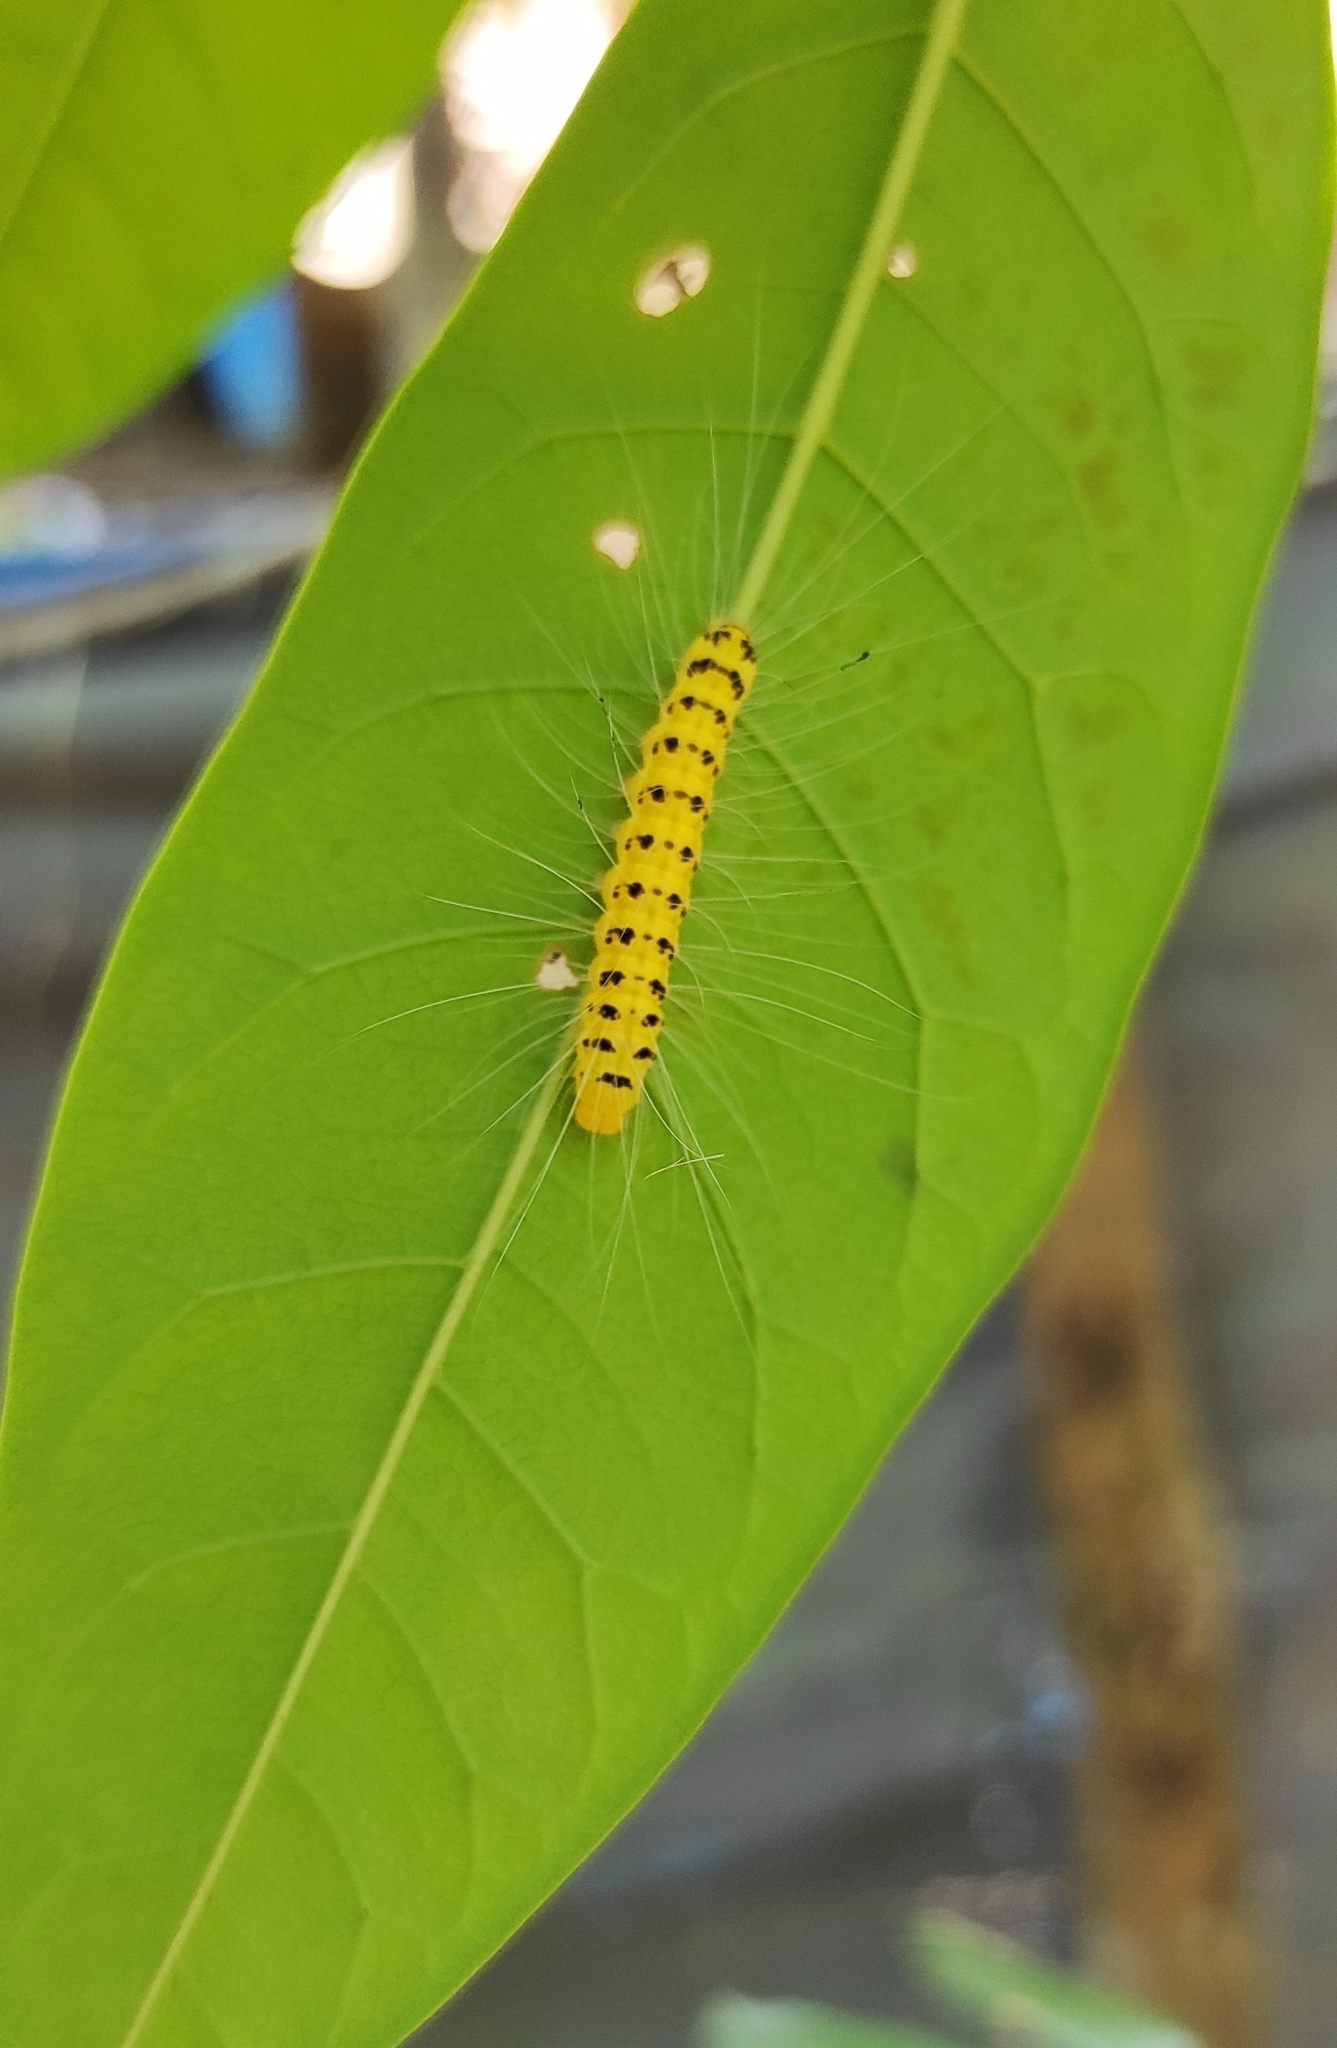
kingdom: Animalia
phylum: Arthropoda
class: Insecta
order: Lepidoptera
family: Nolidae
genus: Eligma
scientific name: Eligma narcissus
